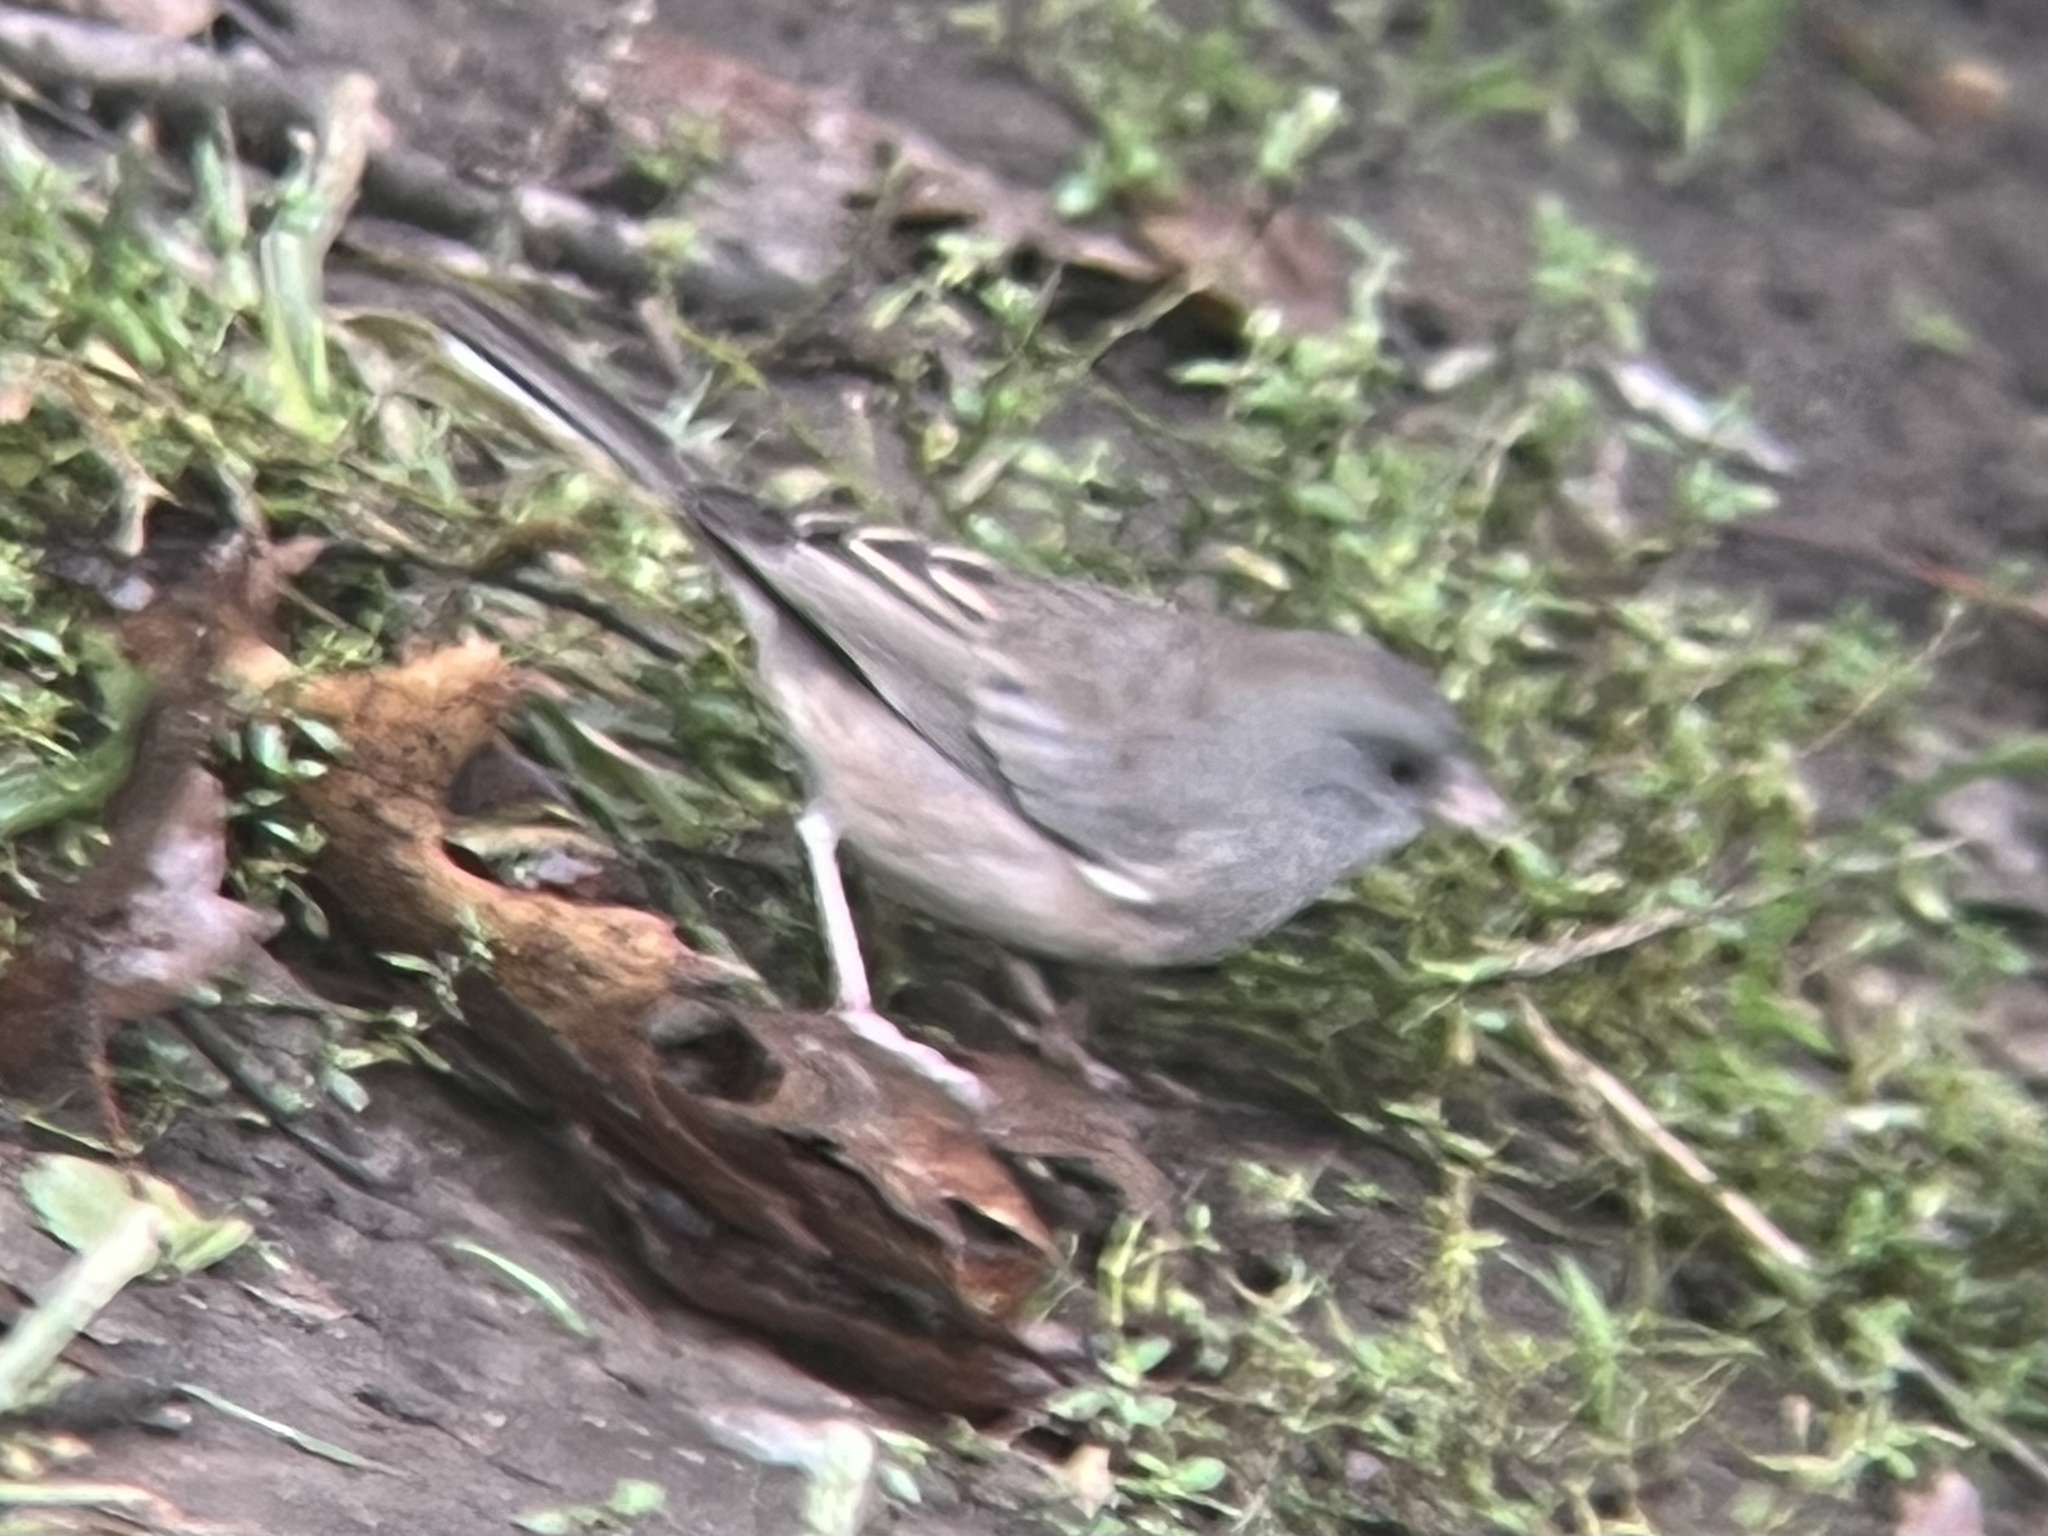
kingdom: Animalia
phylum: Chordata
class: Aves
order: Passeriformes
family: Passerellidae
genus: Junco
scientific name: Junco hyemalis
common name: Dark-eyed junco
